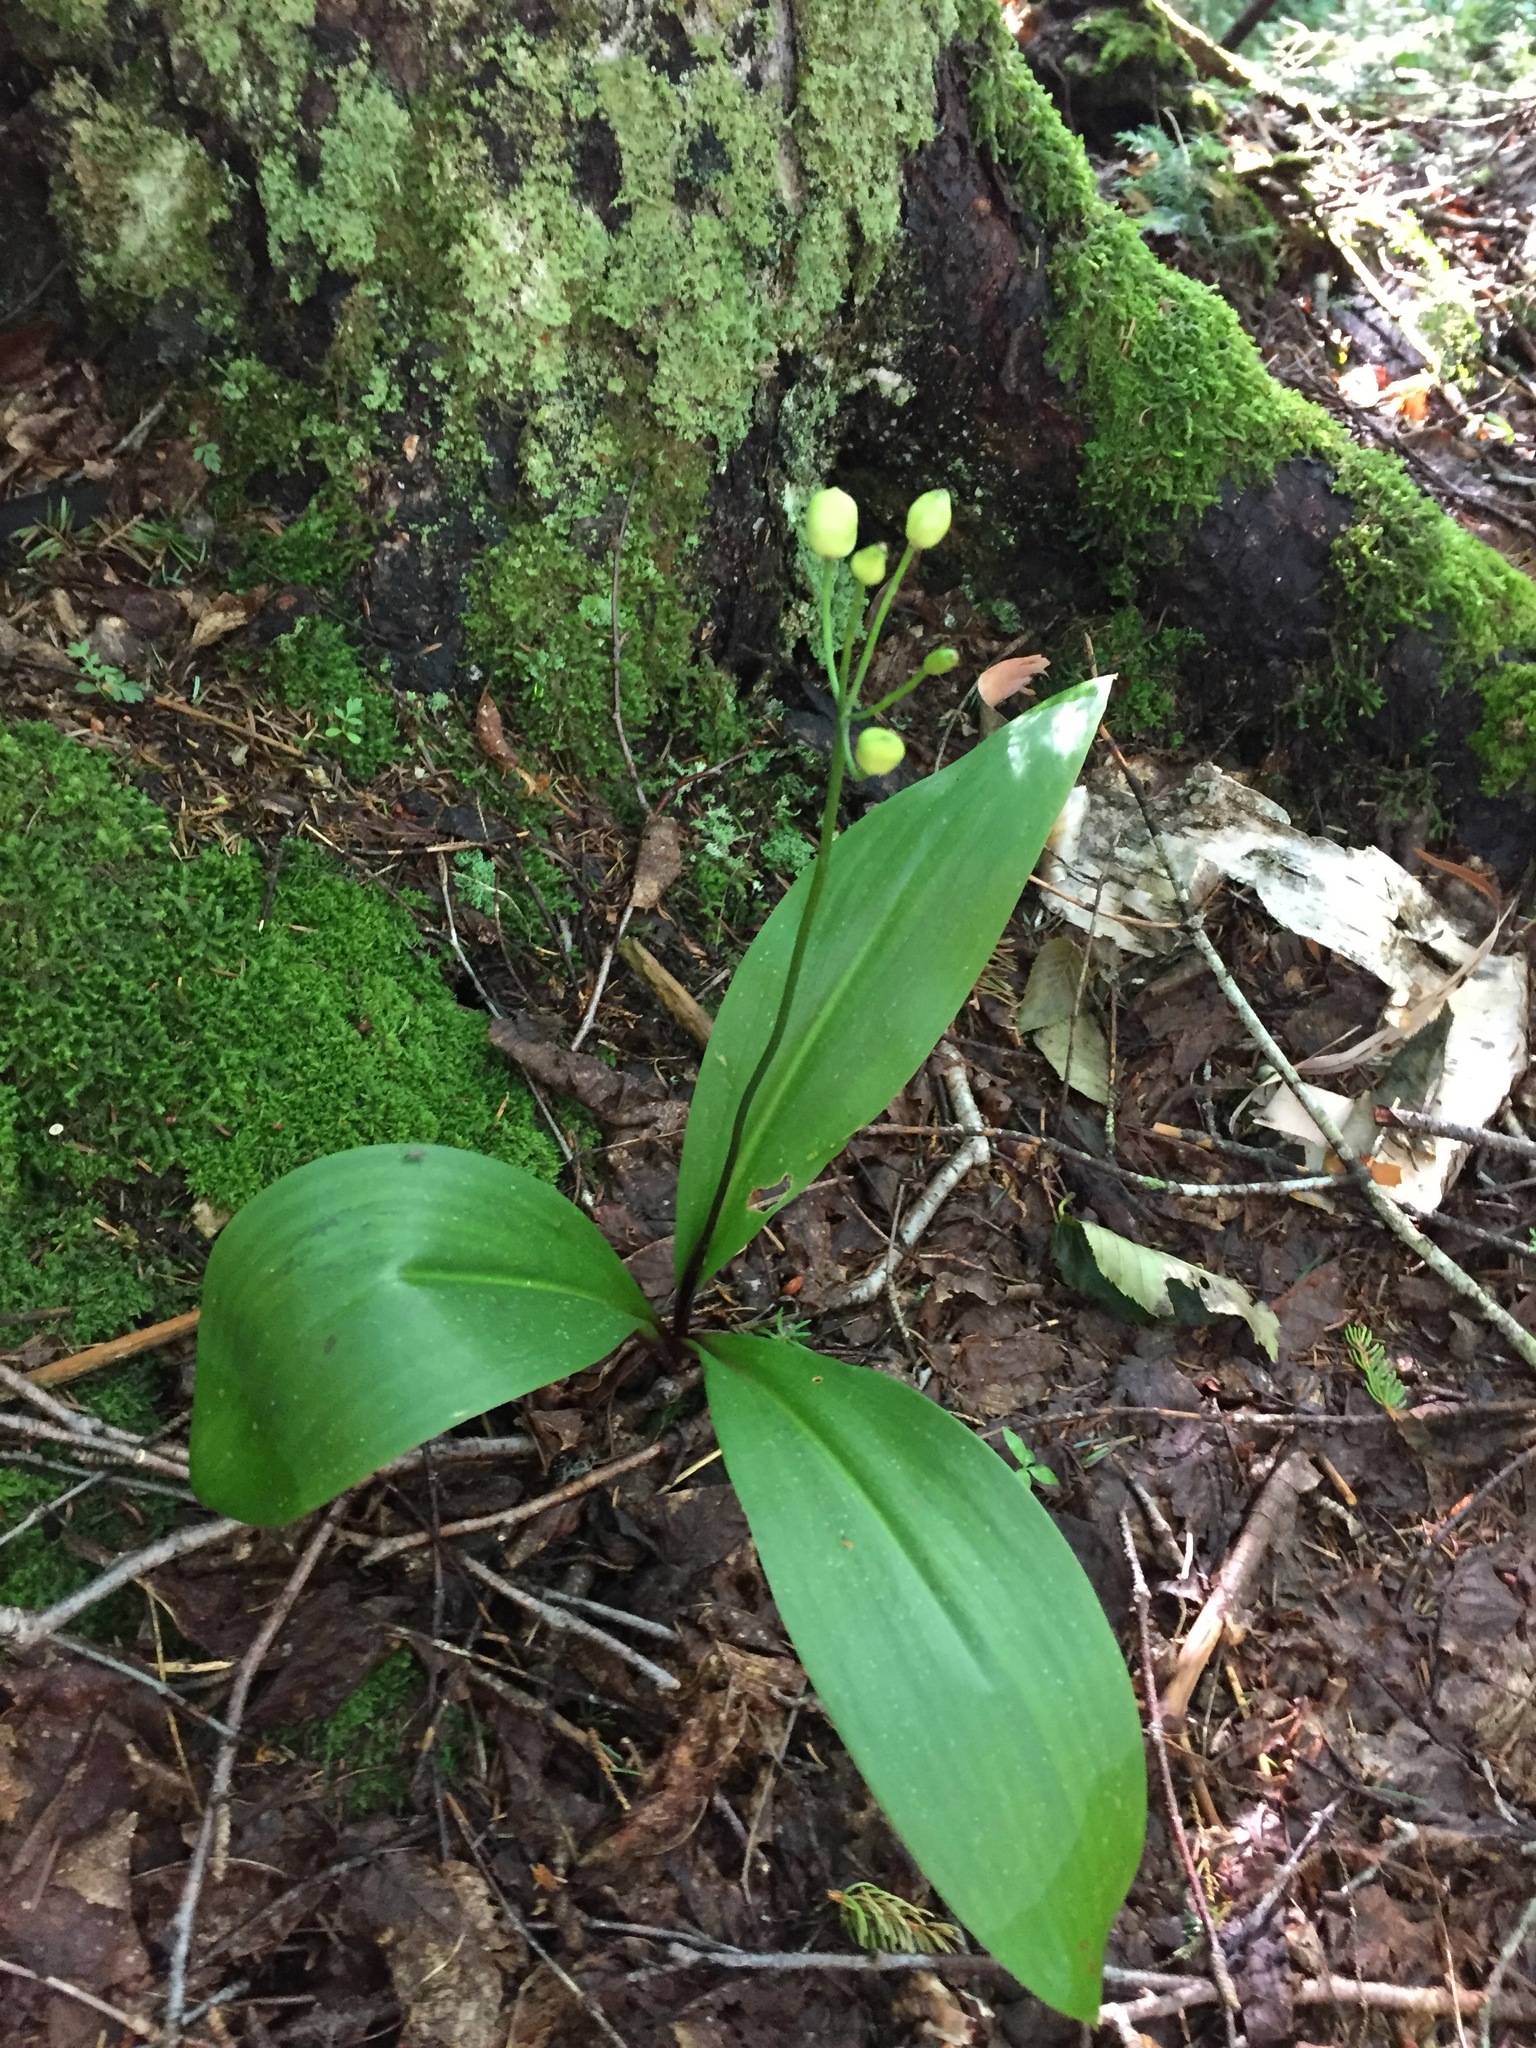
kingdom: Plantae
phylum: Tracheophyta
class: Liliopsida
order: Liliales
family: Liliaceae
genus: Clintonia
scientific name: Clintonia borealis
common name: Yellow clintonia
